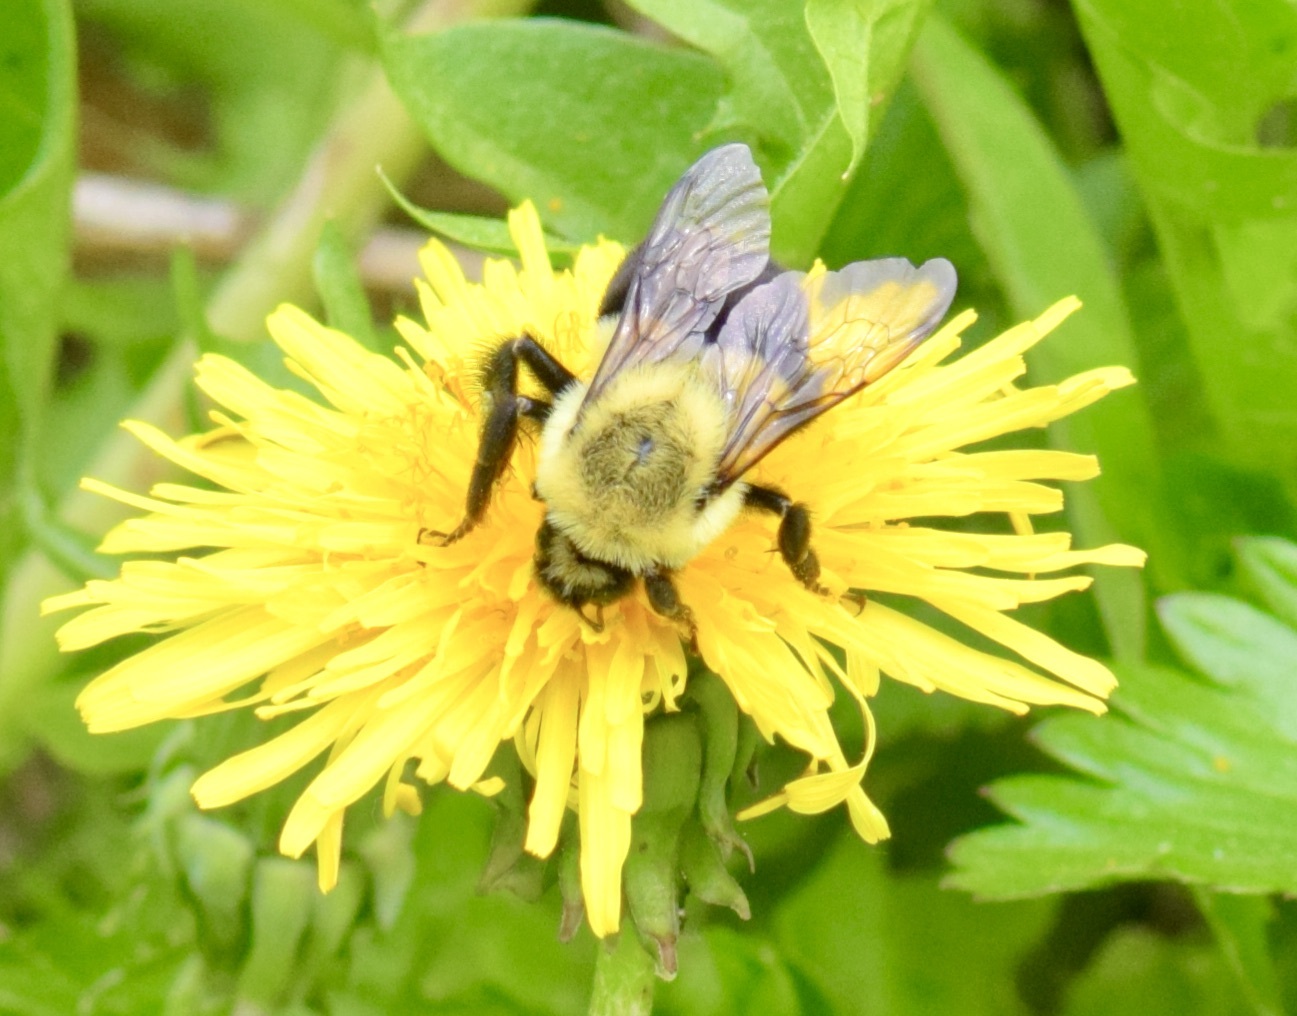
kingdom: Animalia
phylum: Arthropoda
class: Insecta
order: Hymenoptera
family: Apidae
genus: Bombus
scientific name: Bombus impatiens
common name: Common eastern bumble bee
